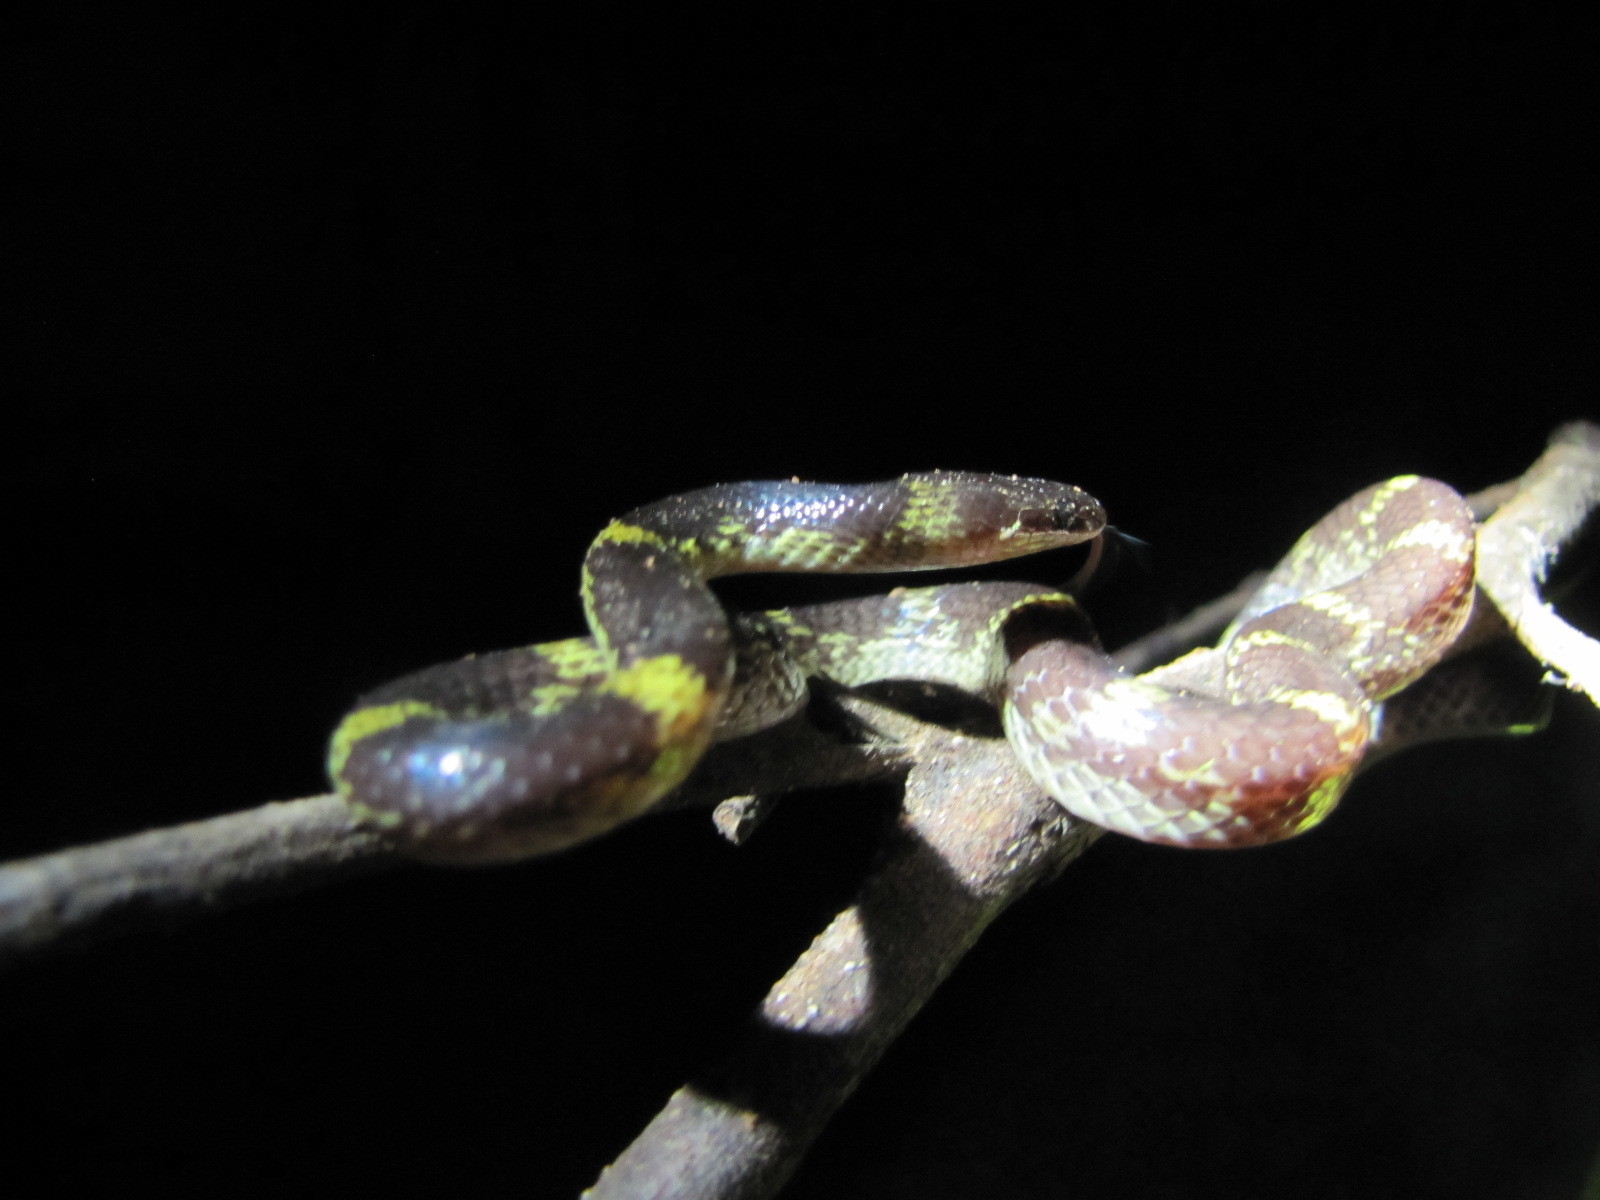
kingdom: Animalia
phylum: Chordata
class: Squamata
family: Colubridae
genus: Lycodon
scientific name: Lycodon travancoricus
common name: Travancore wolf snake
